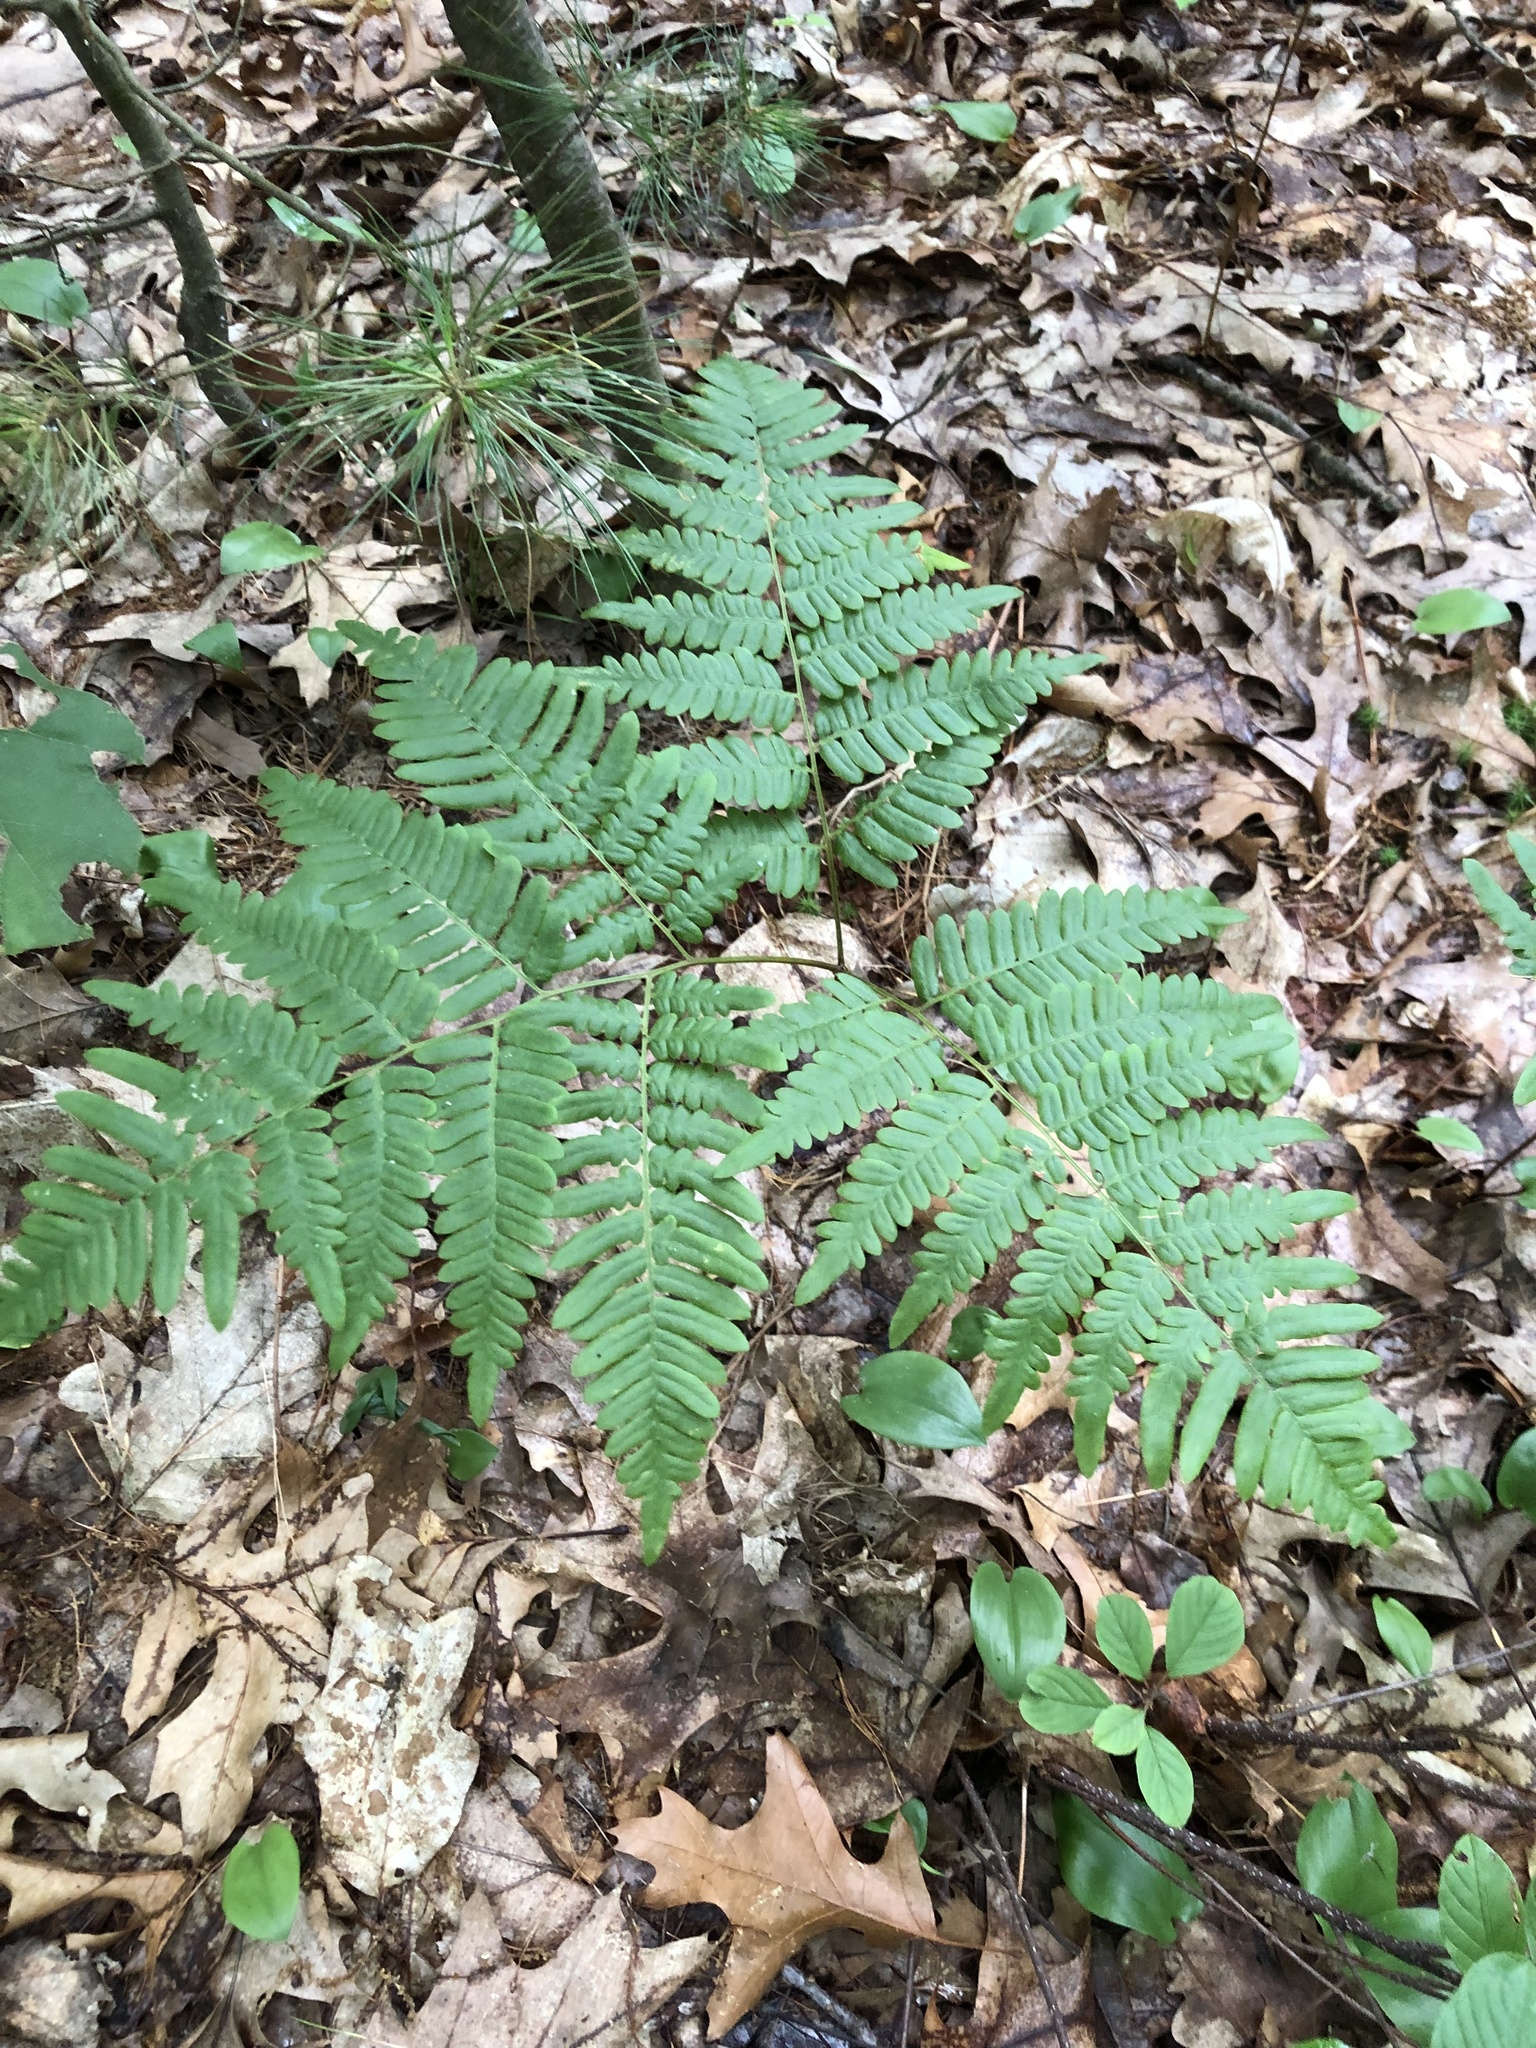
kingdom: Plantae
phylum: Tracheophyta
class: Polypodiopsida
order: Polypodiales
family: Dennstaedtiaceae
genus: Pteridium
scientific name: Pteridium aquilinum
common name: Bracken
